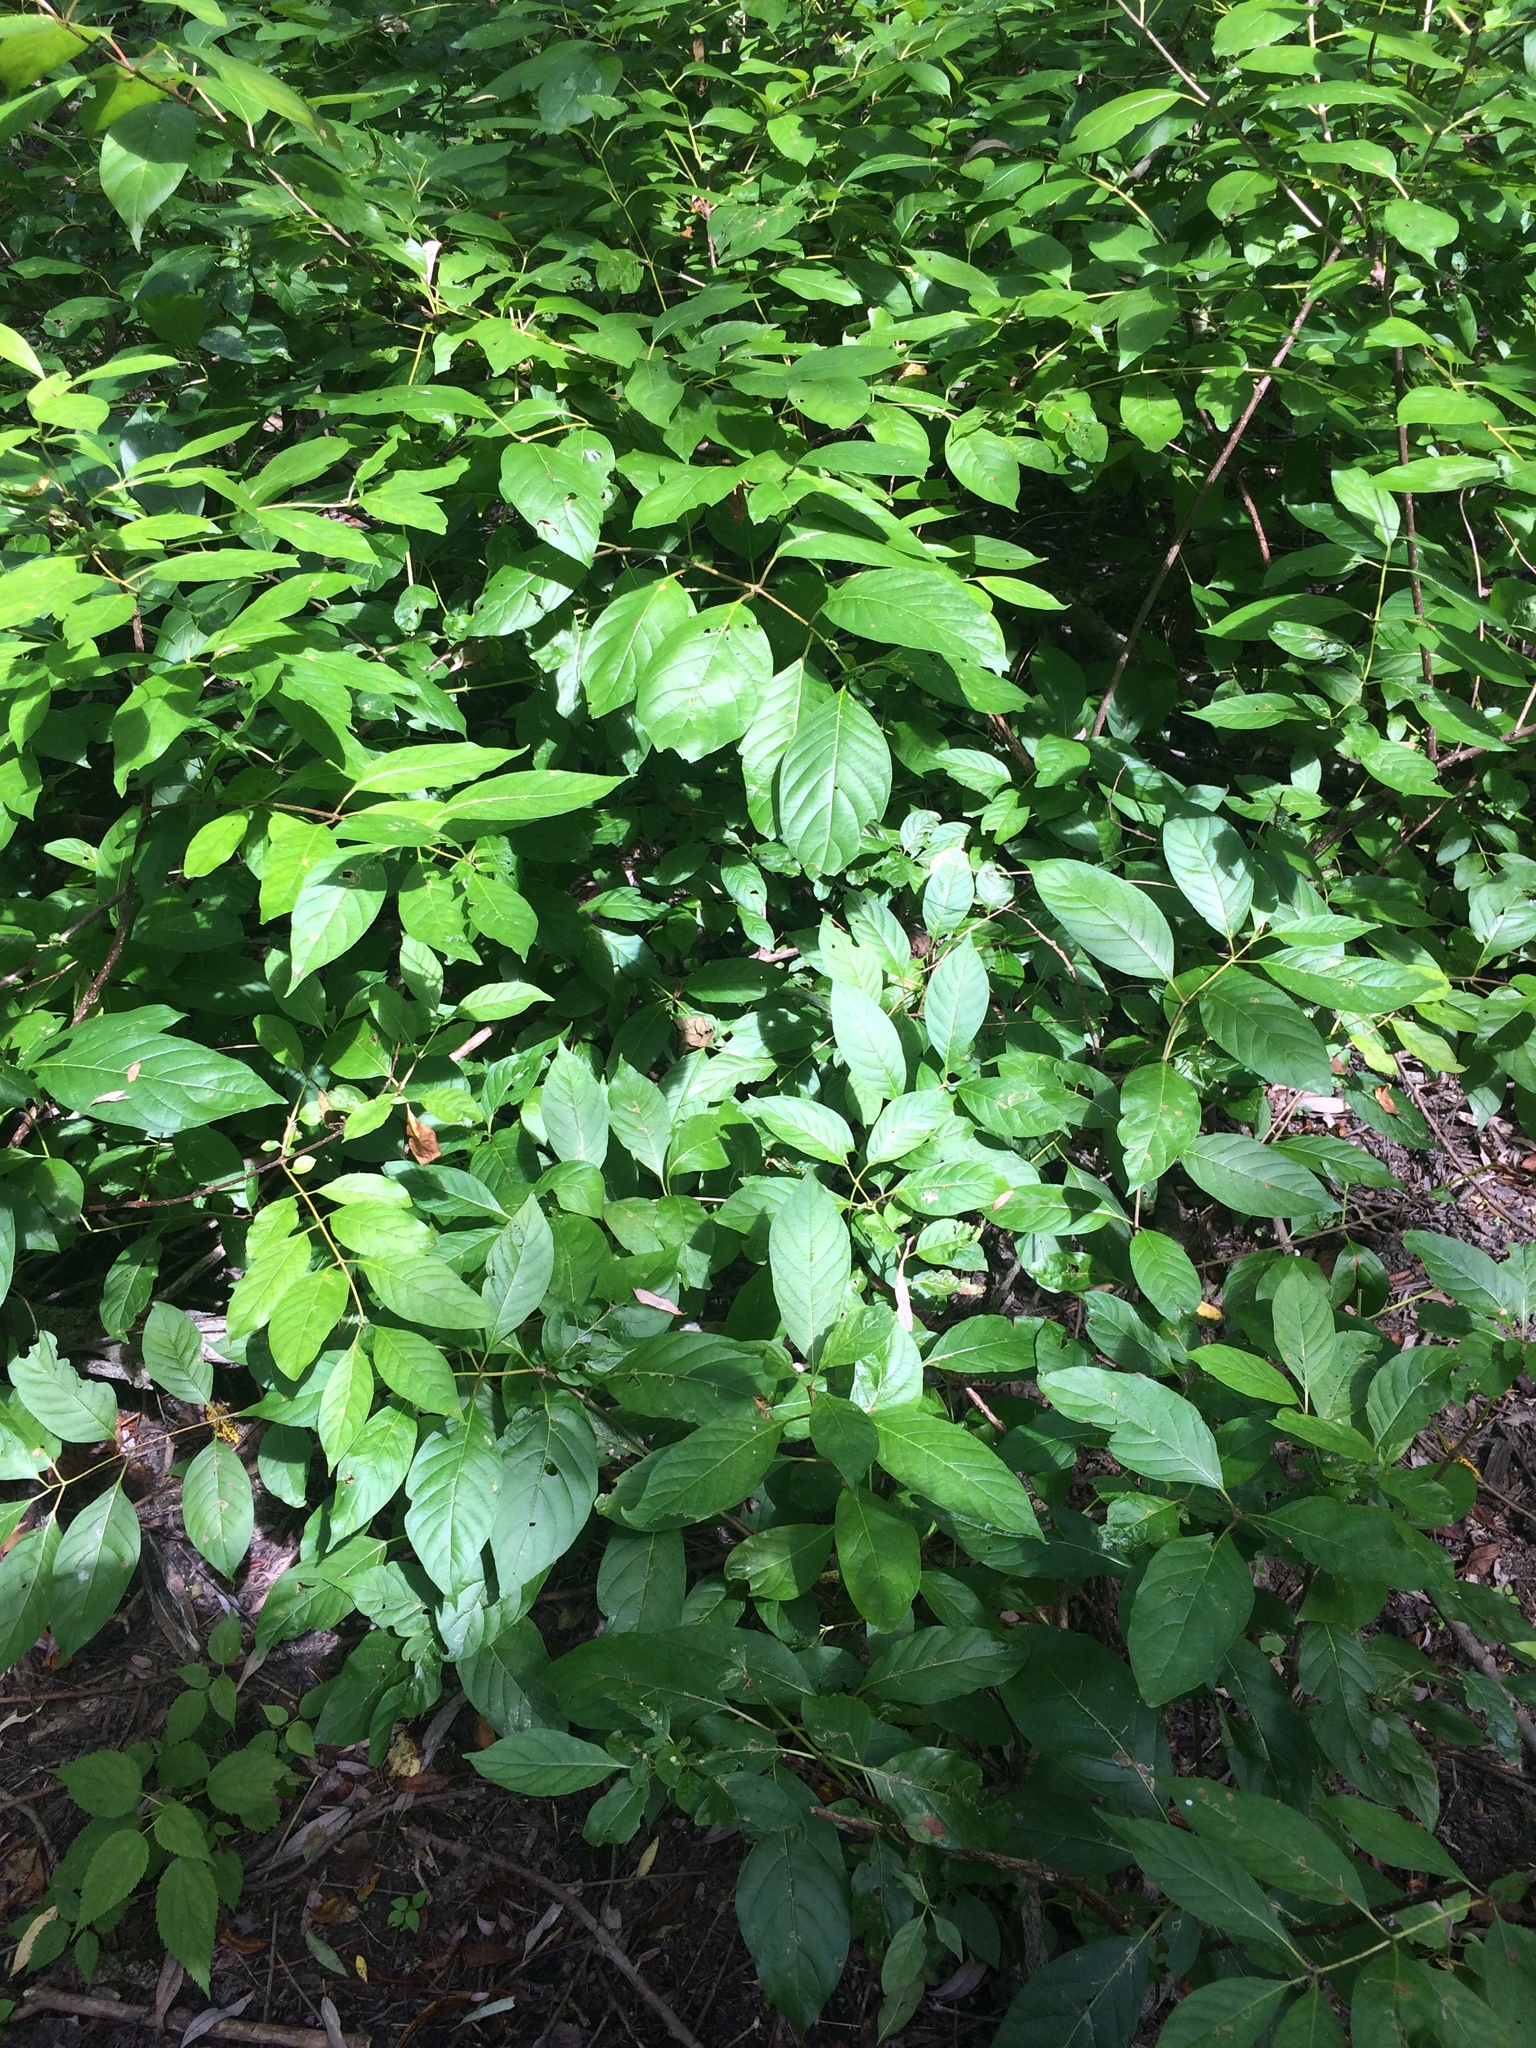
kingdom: Plantae
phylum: Tracheophyta
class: Magnoliopsida
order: Gentianales
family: Rubiaceae
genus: Cephalanthus
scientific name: Cephalanthus occidentalis
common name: Button-willow
